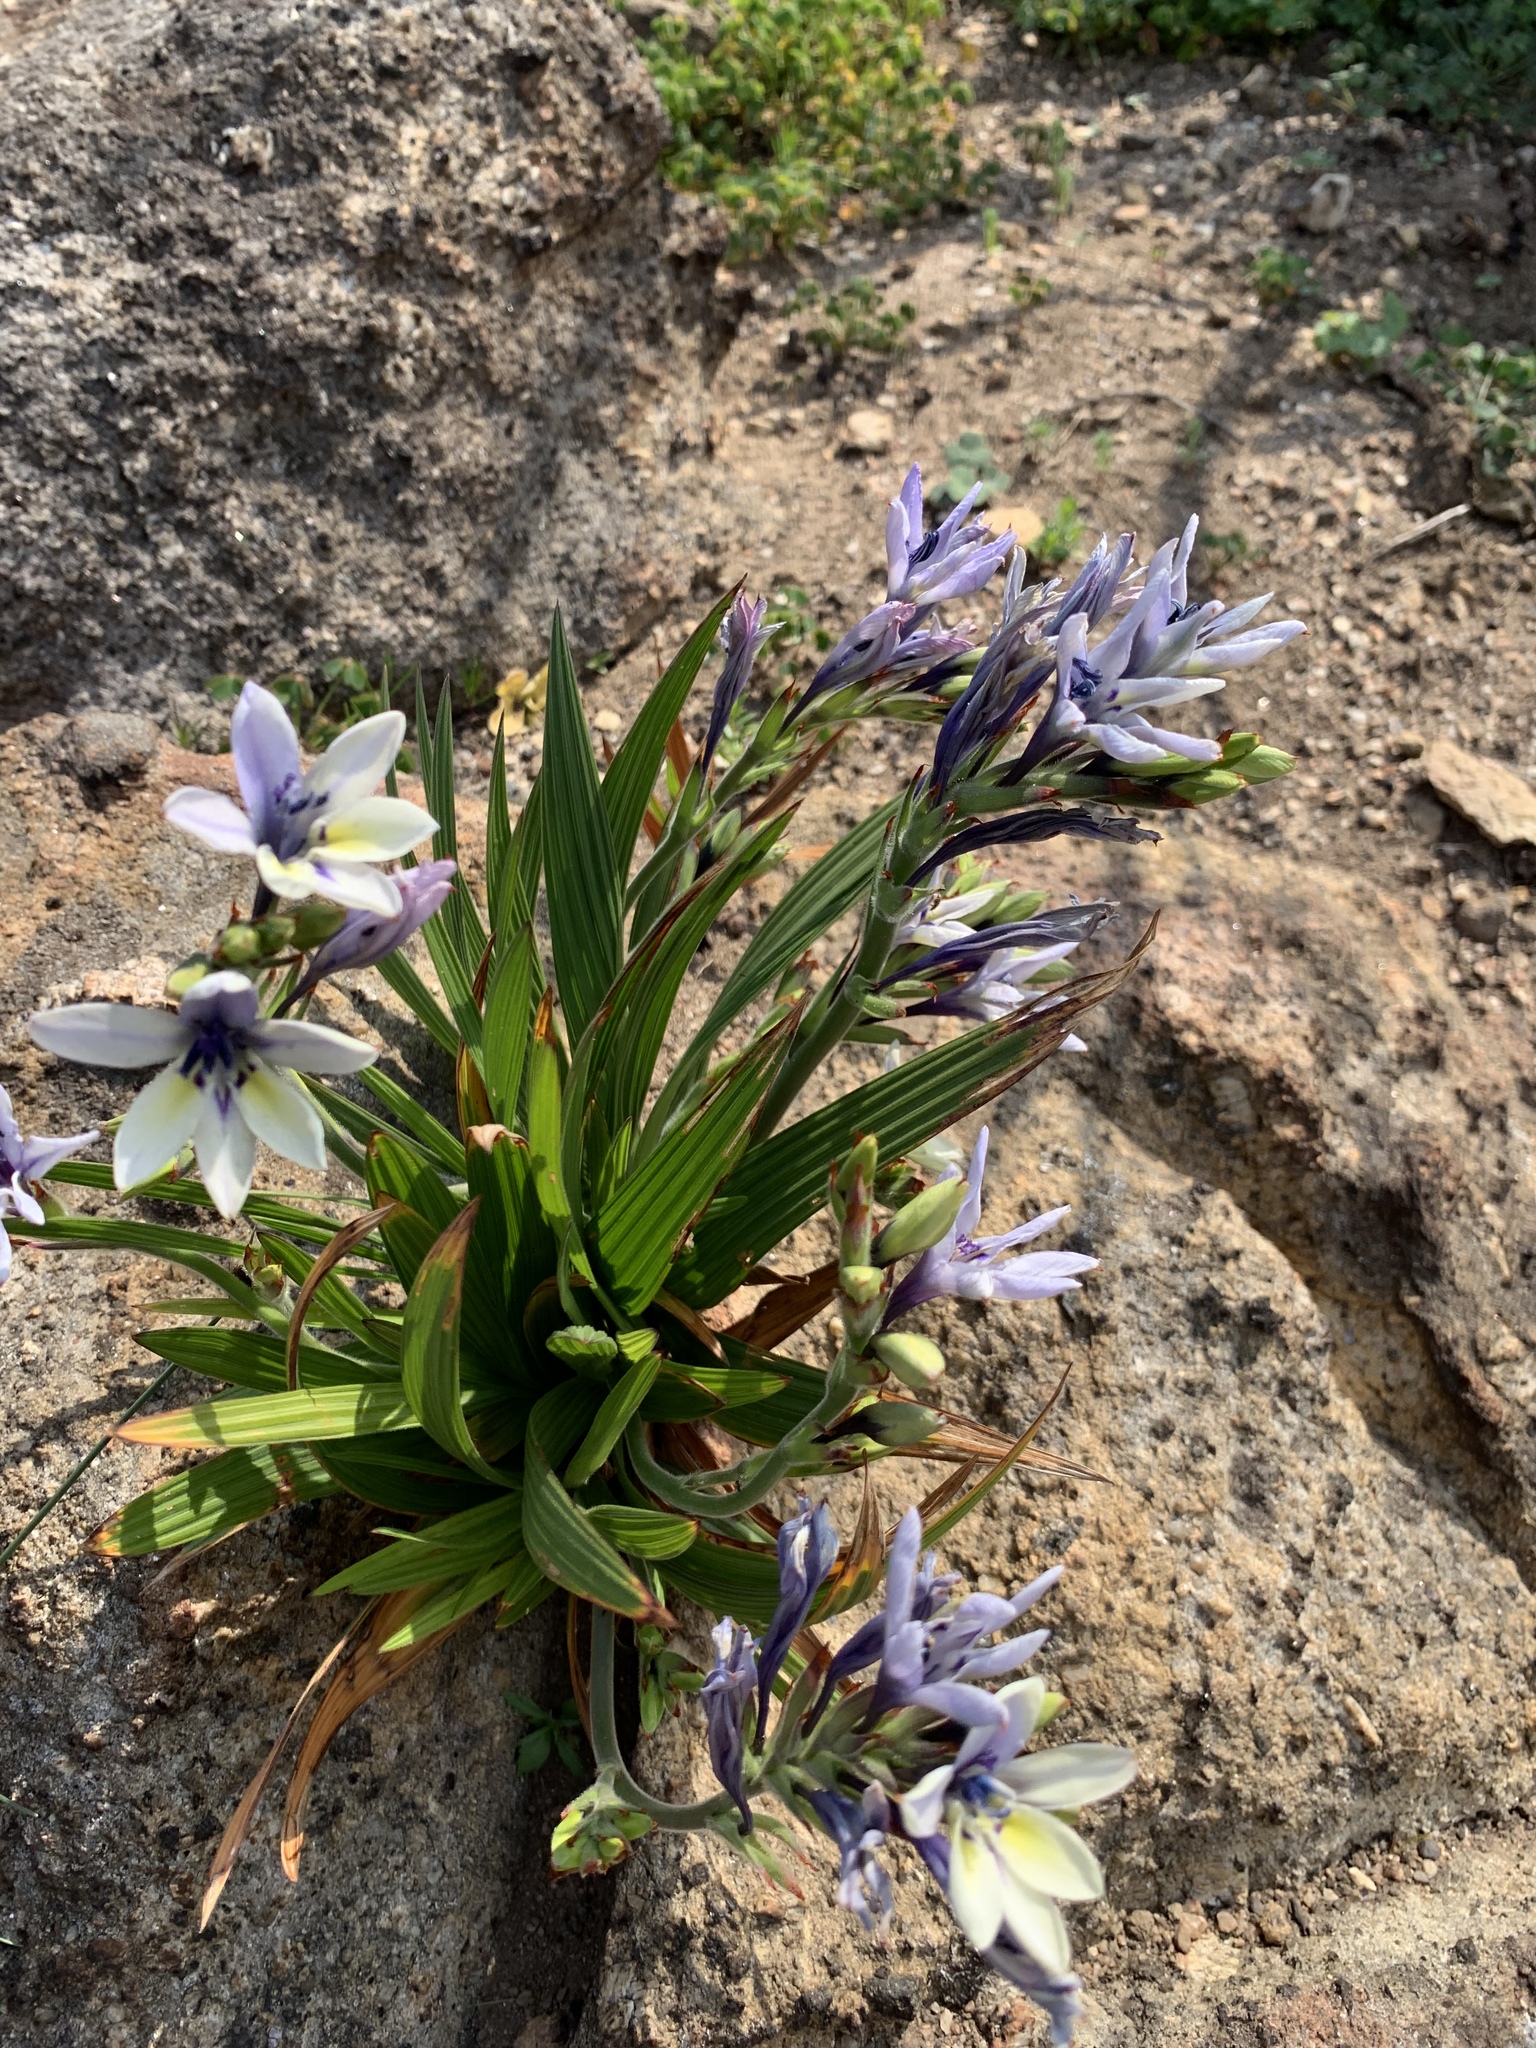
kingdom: Plantae
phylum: Tracheophyta
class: Liliopsida
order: Asparagales
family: Iridaceae
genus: Babiana
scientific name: Babiana fragrans
